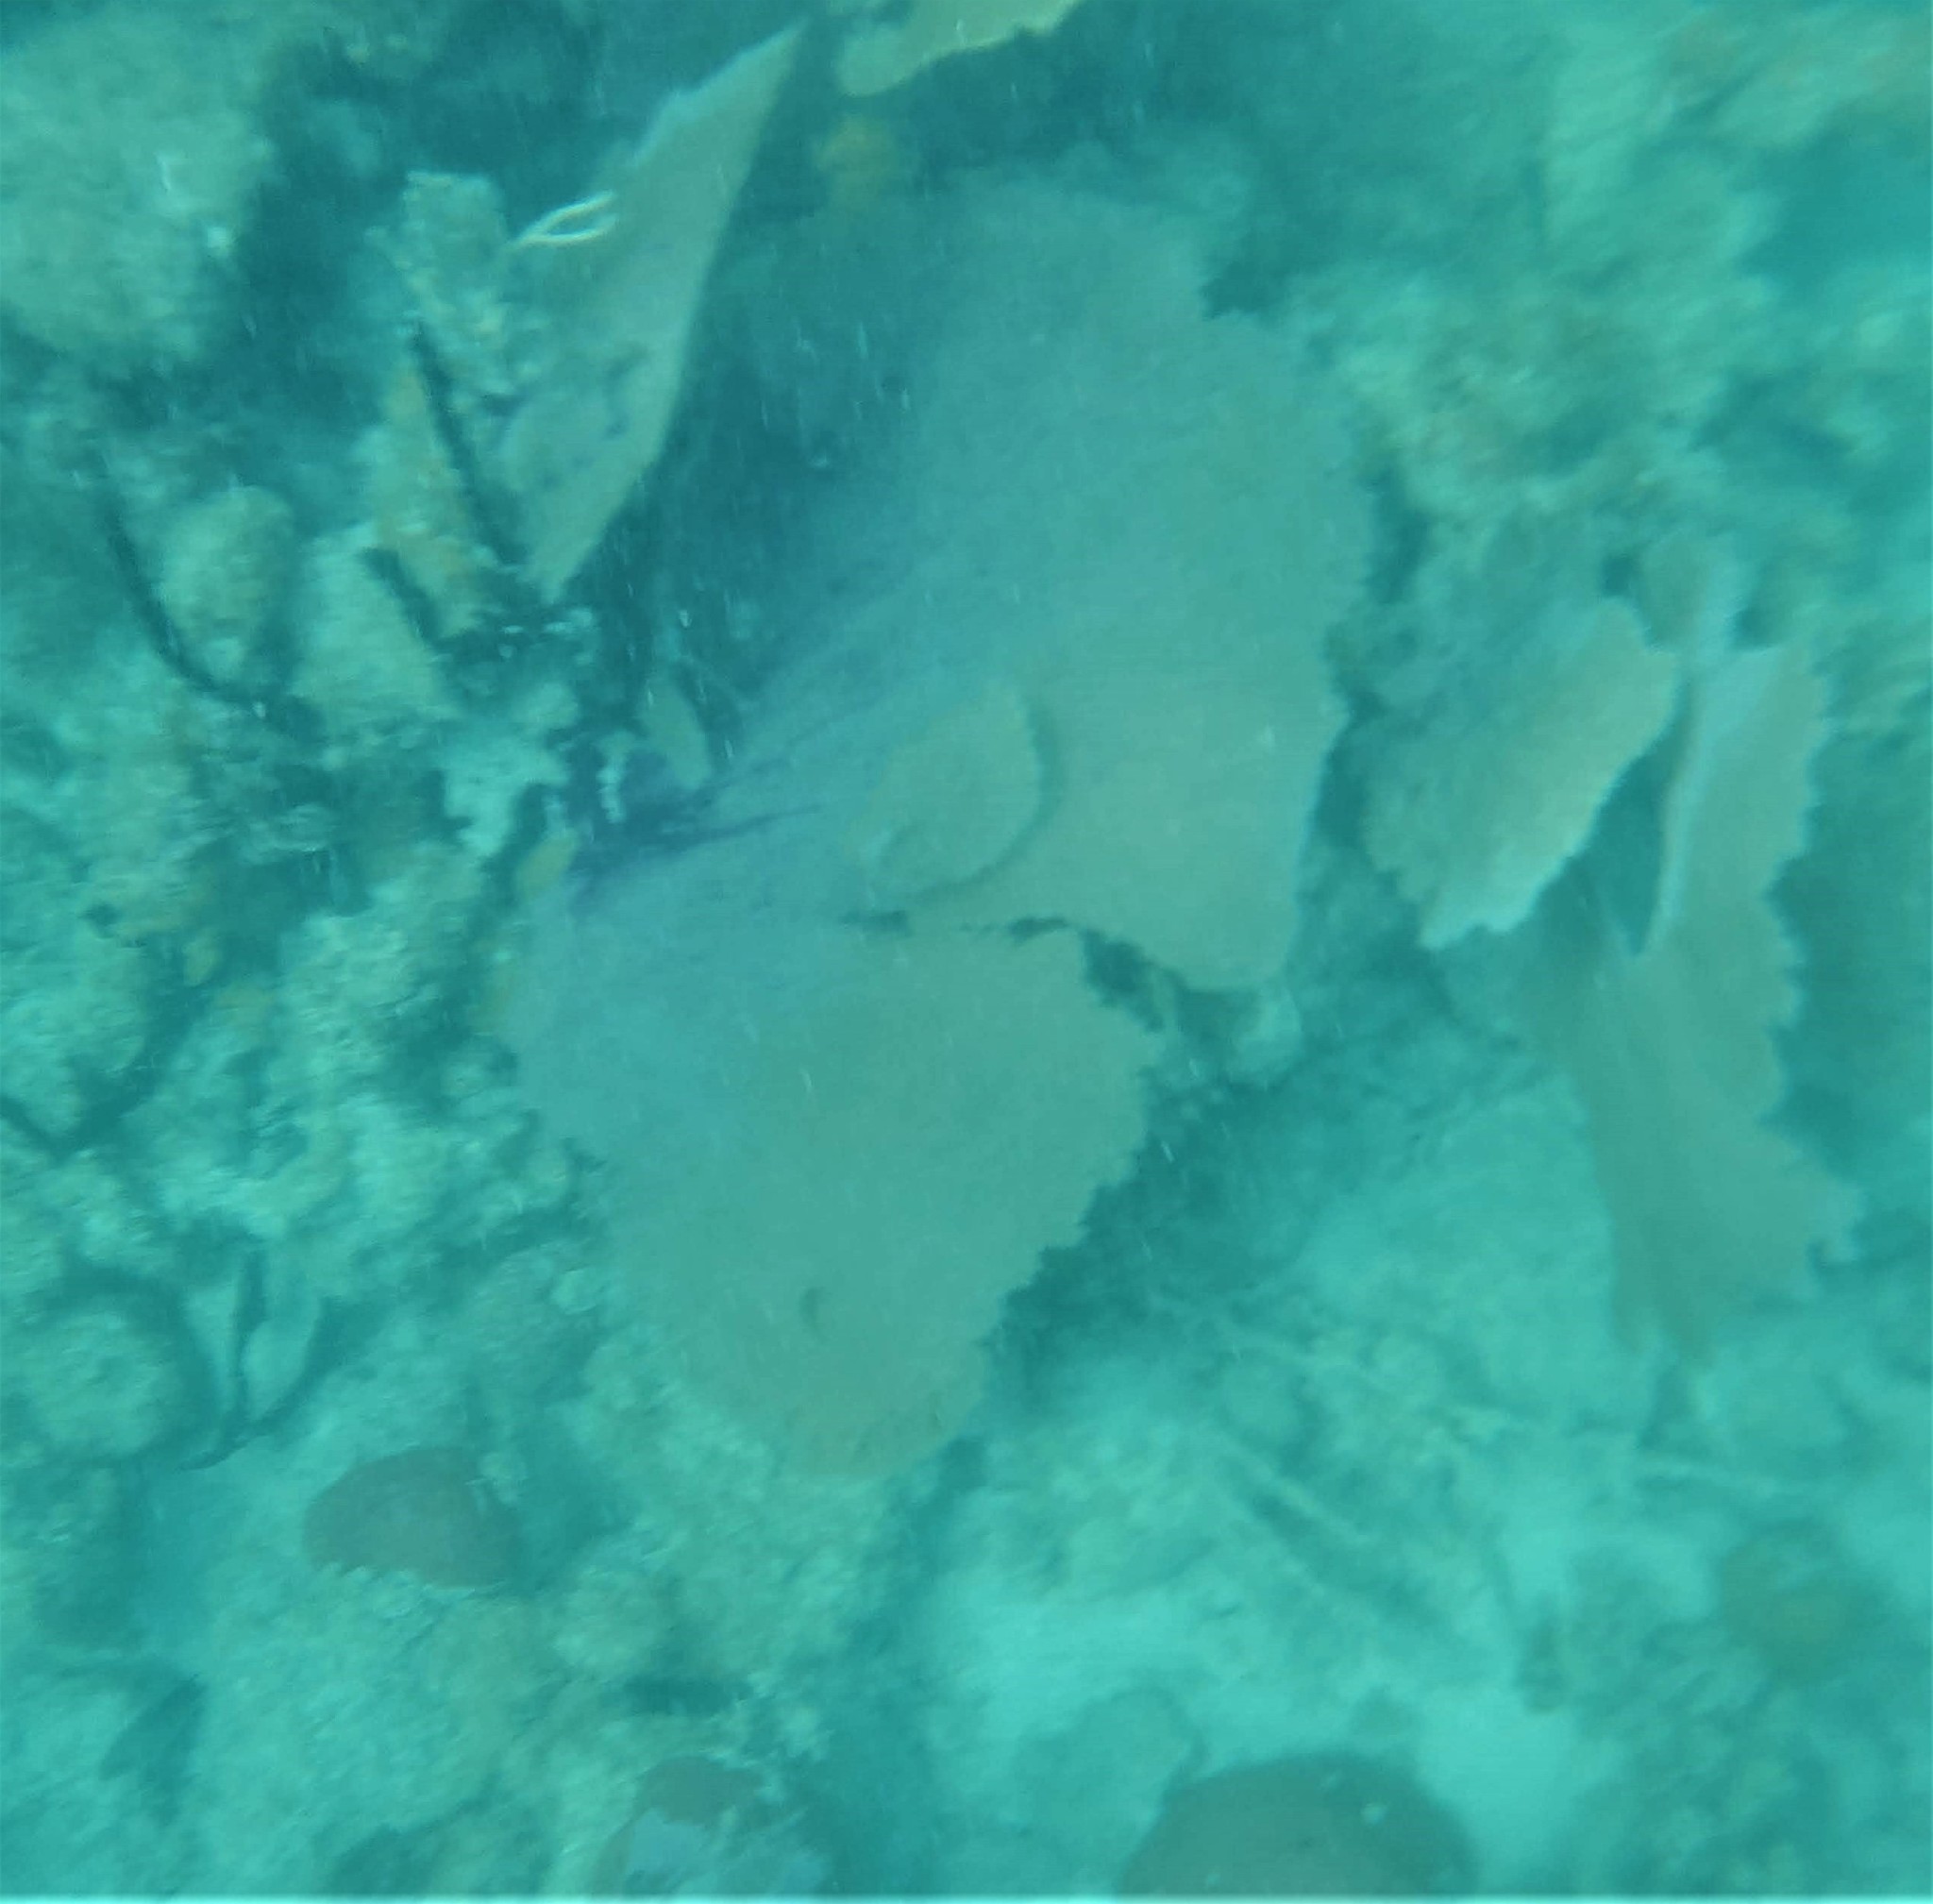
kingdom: Animalia
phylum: Cnidaria
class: Anthozoa
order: Malacalcyonacea
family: Gorgoniidae
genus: Gorgonia
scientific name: Gorgonia ventalina
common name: Common sea fan
